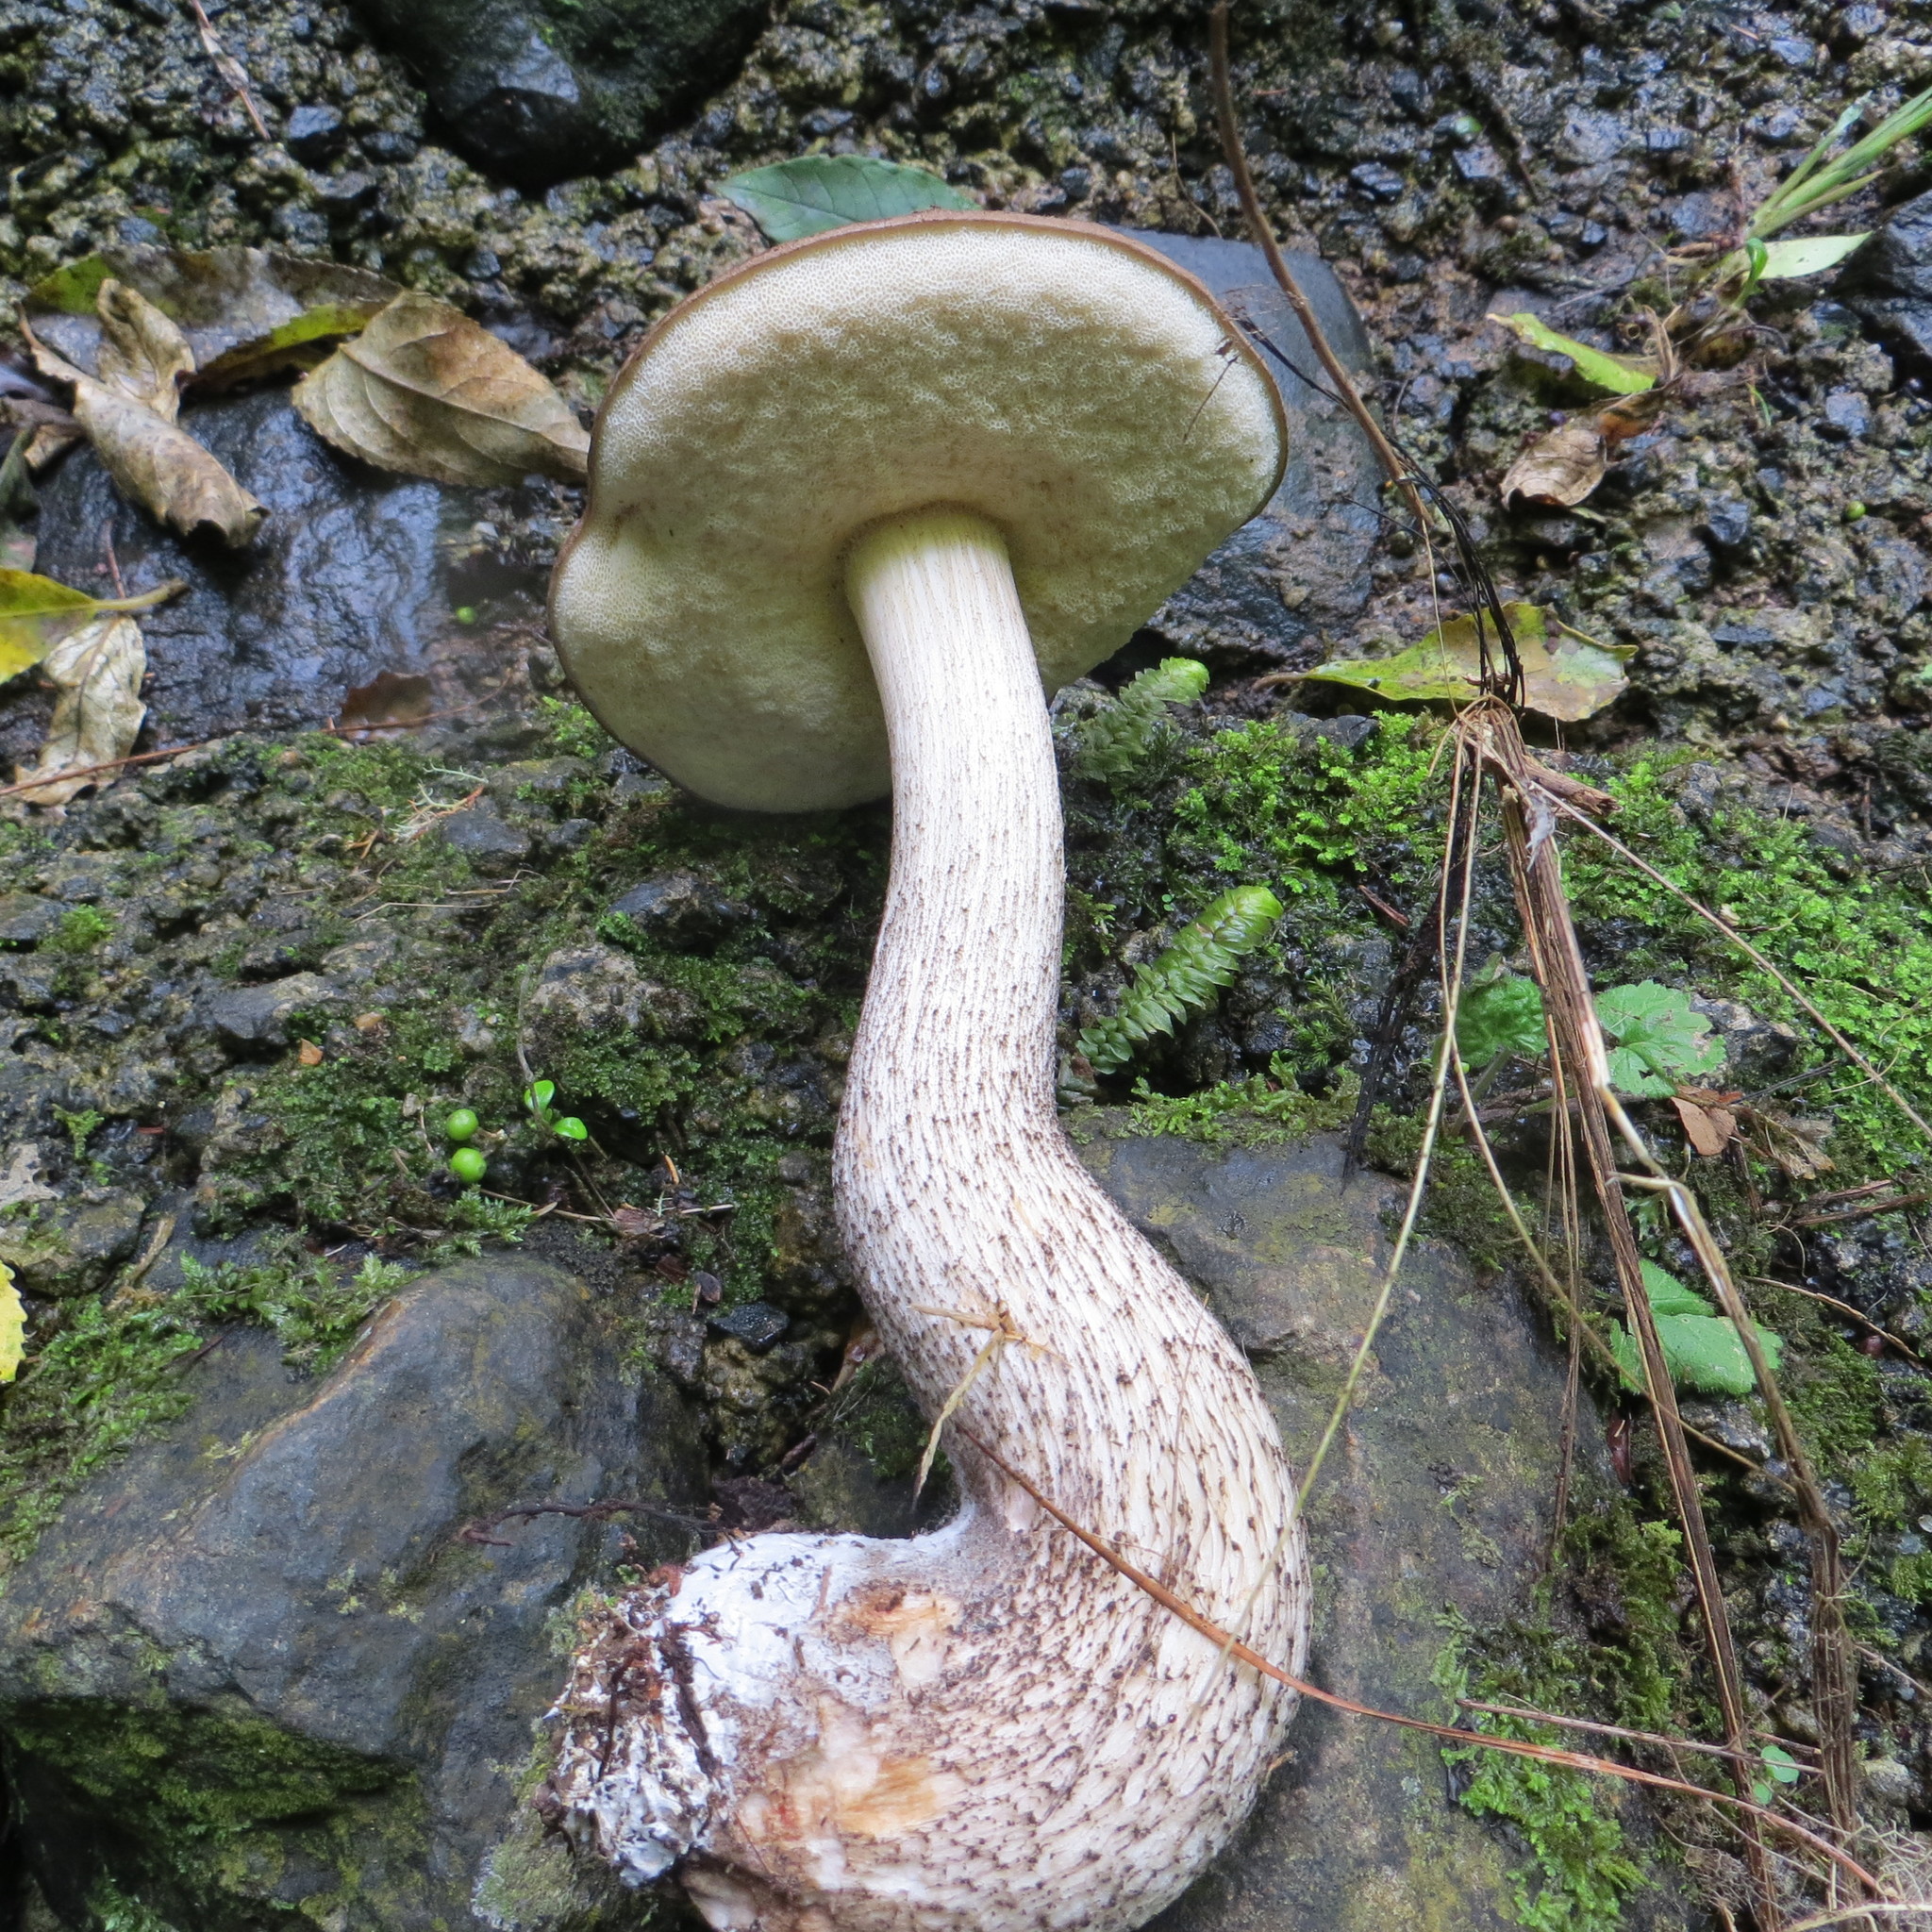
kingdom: Fungi
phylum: Basidiomycota
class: Agaricomycetes
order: Boletales
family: Boletaceae
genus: Leccinum
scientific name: Leccinum scabrum
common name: Blushing bolete
